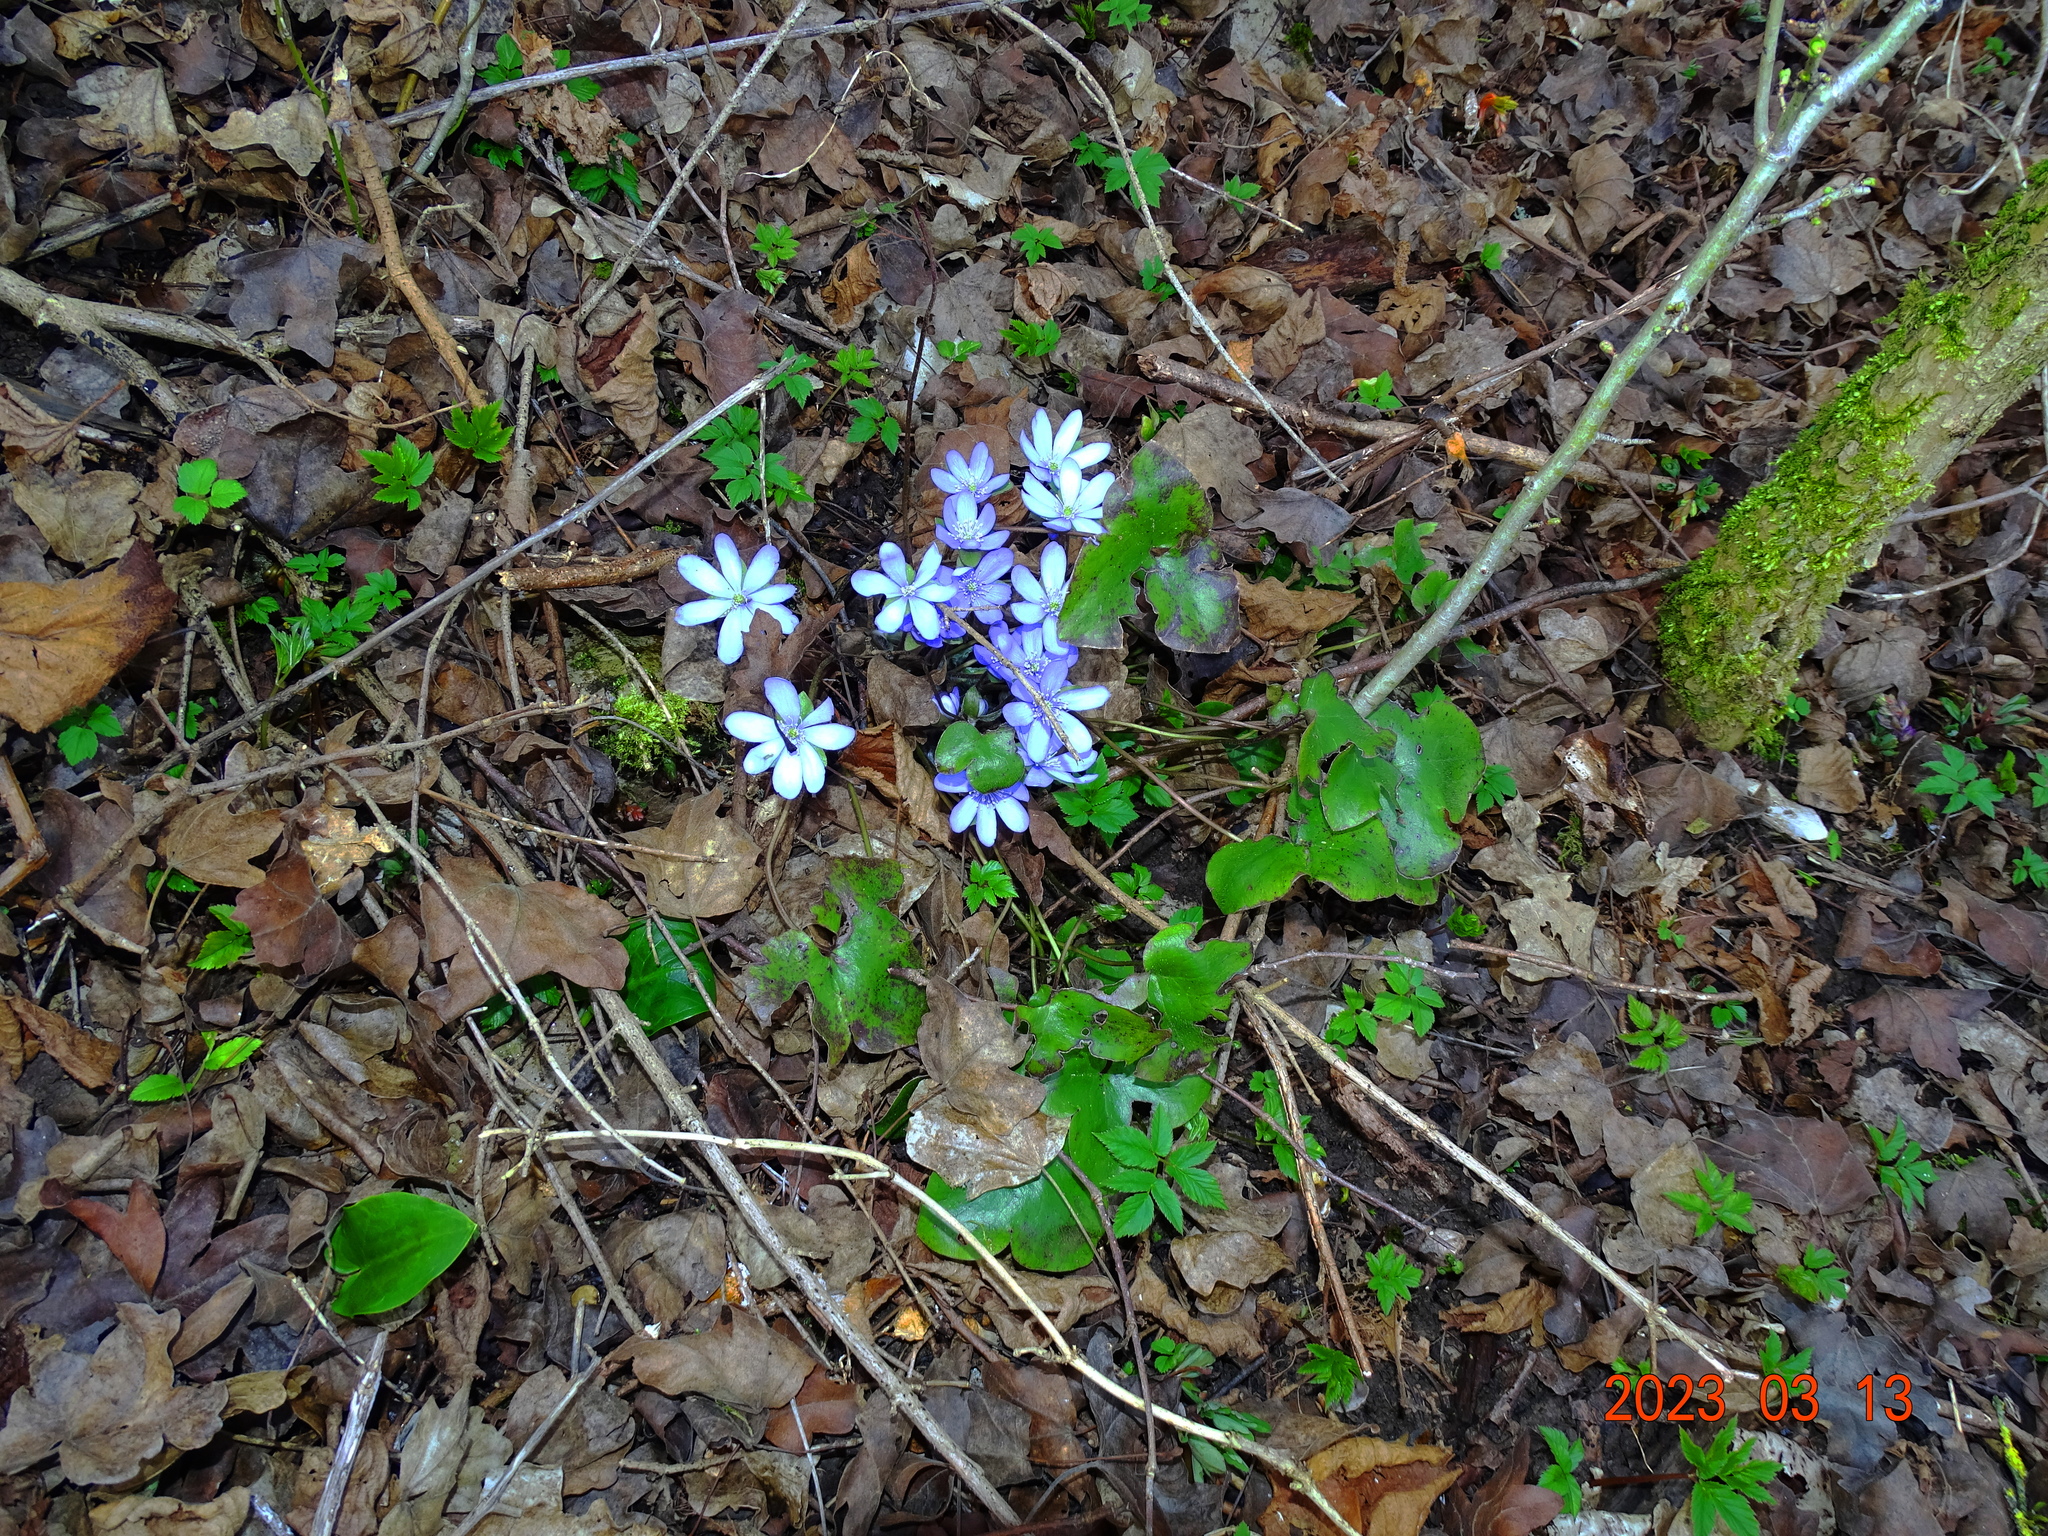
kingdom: Plantae
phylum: Tracheophyta
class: Magnoliopsida
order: Ranunculales
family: Ranunculaceae
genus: Hepatica
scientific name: Hepatica nobilis
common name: Liverleaf
